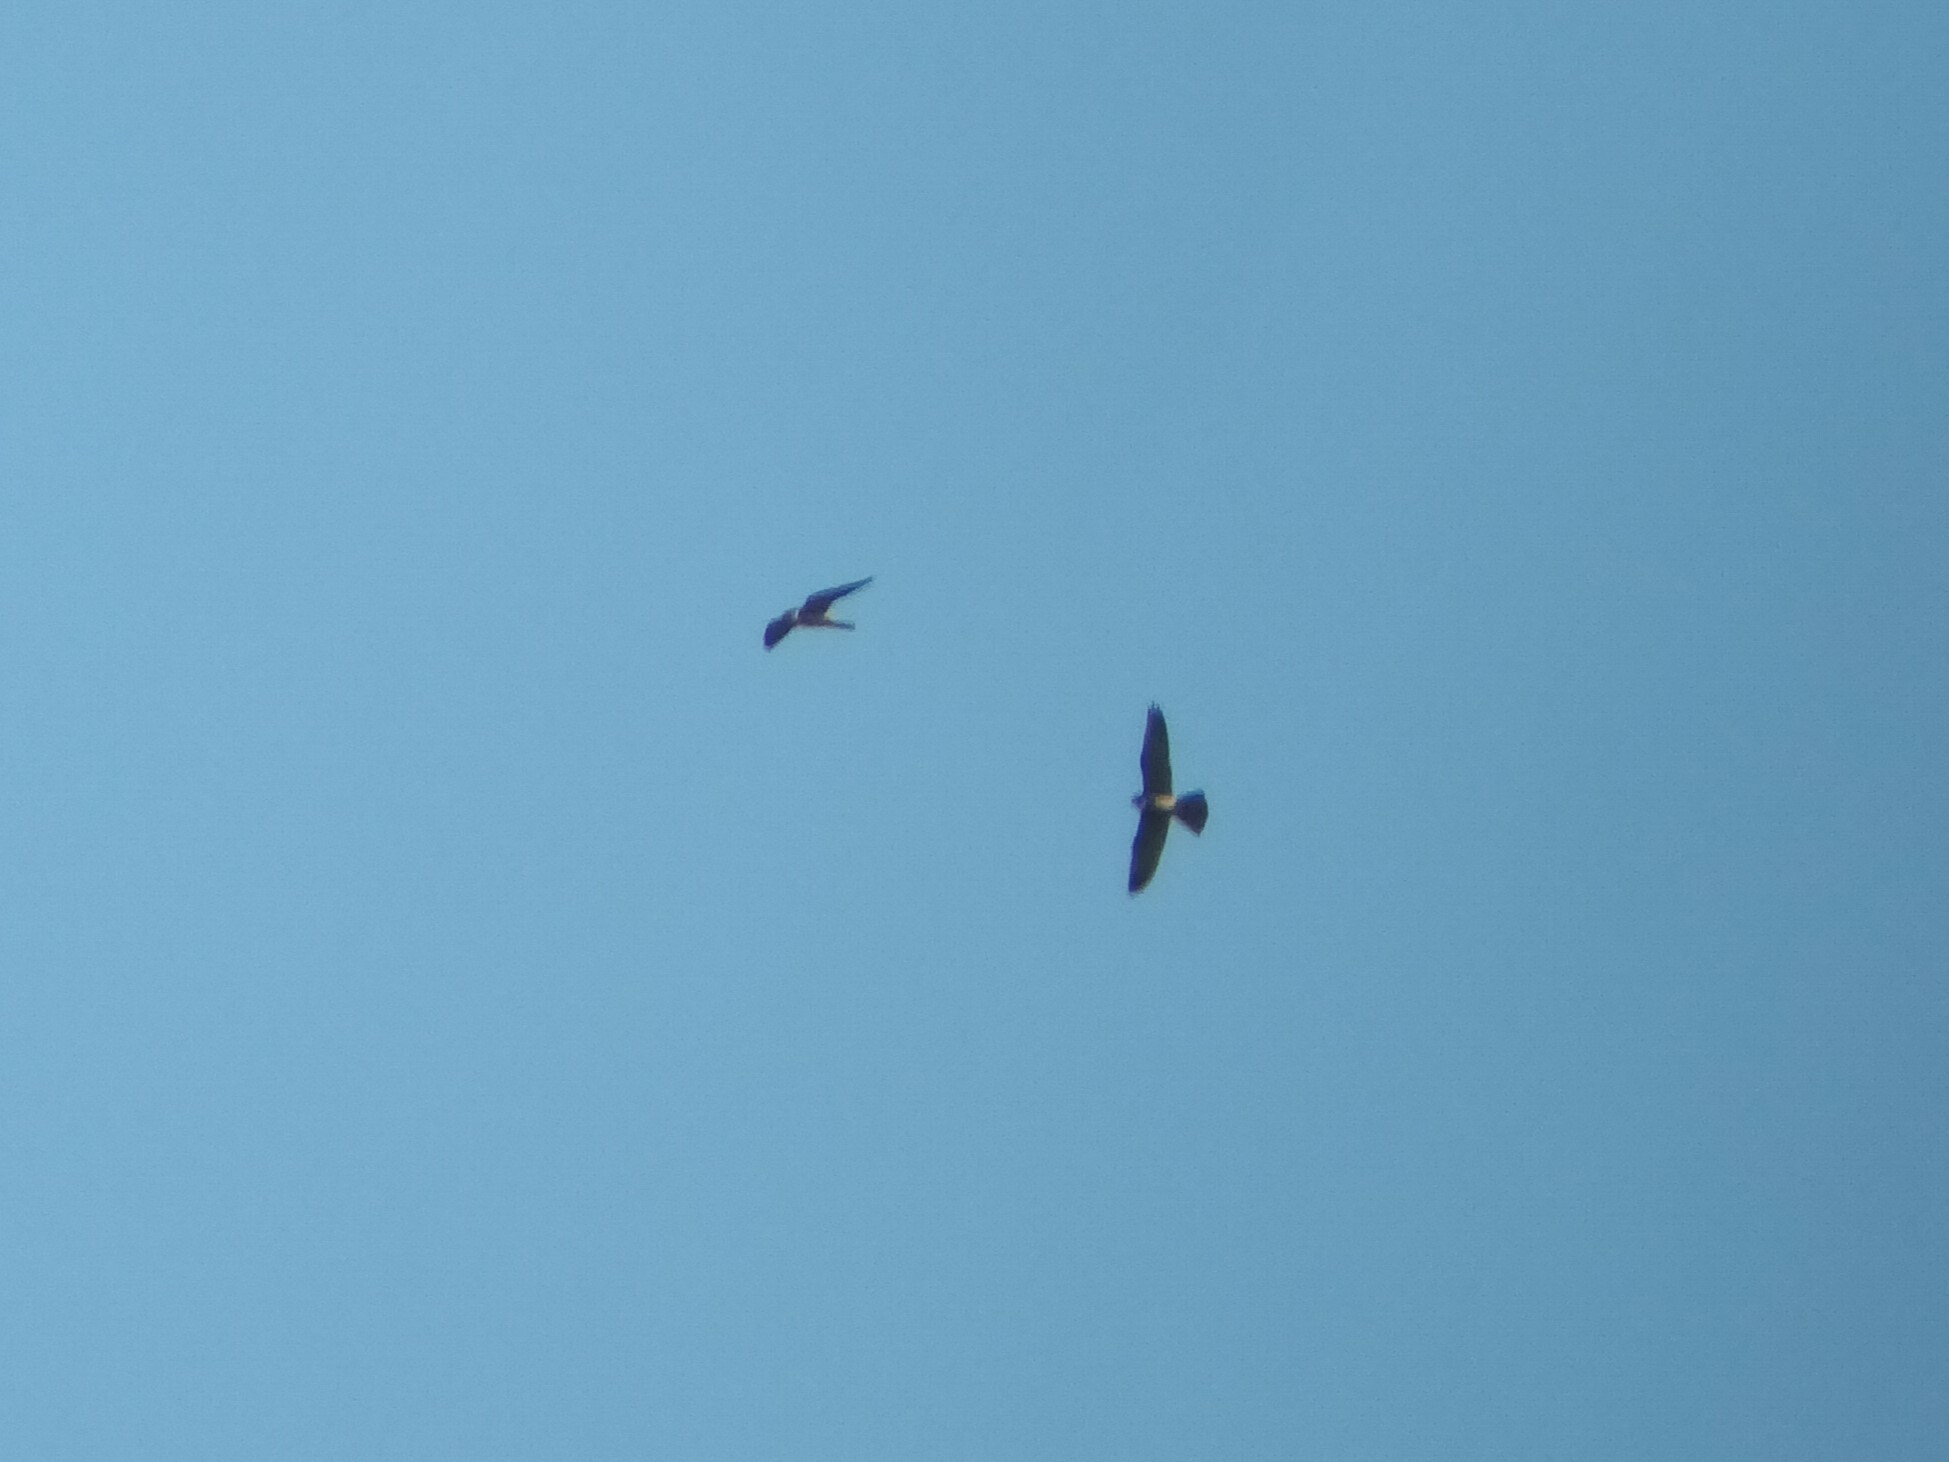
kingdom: Animalia
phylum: Chordata
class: Aves
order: Falconiformes
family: Falconidae
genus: Falco
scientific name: Falco subbuteo
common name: Eurasian hobby
